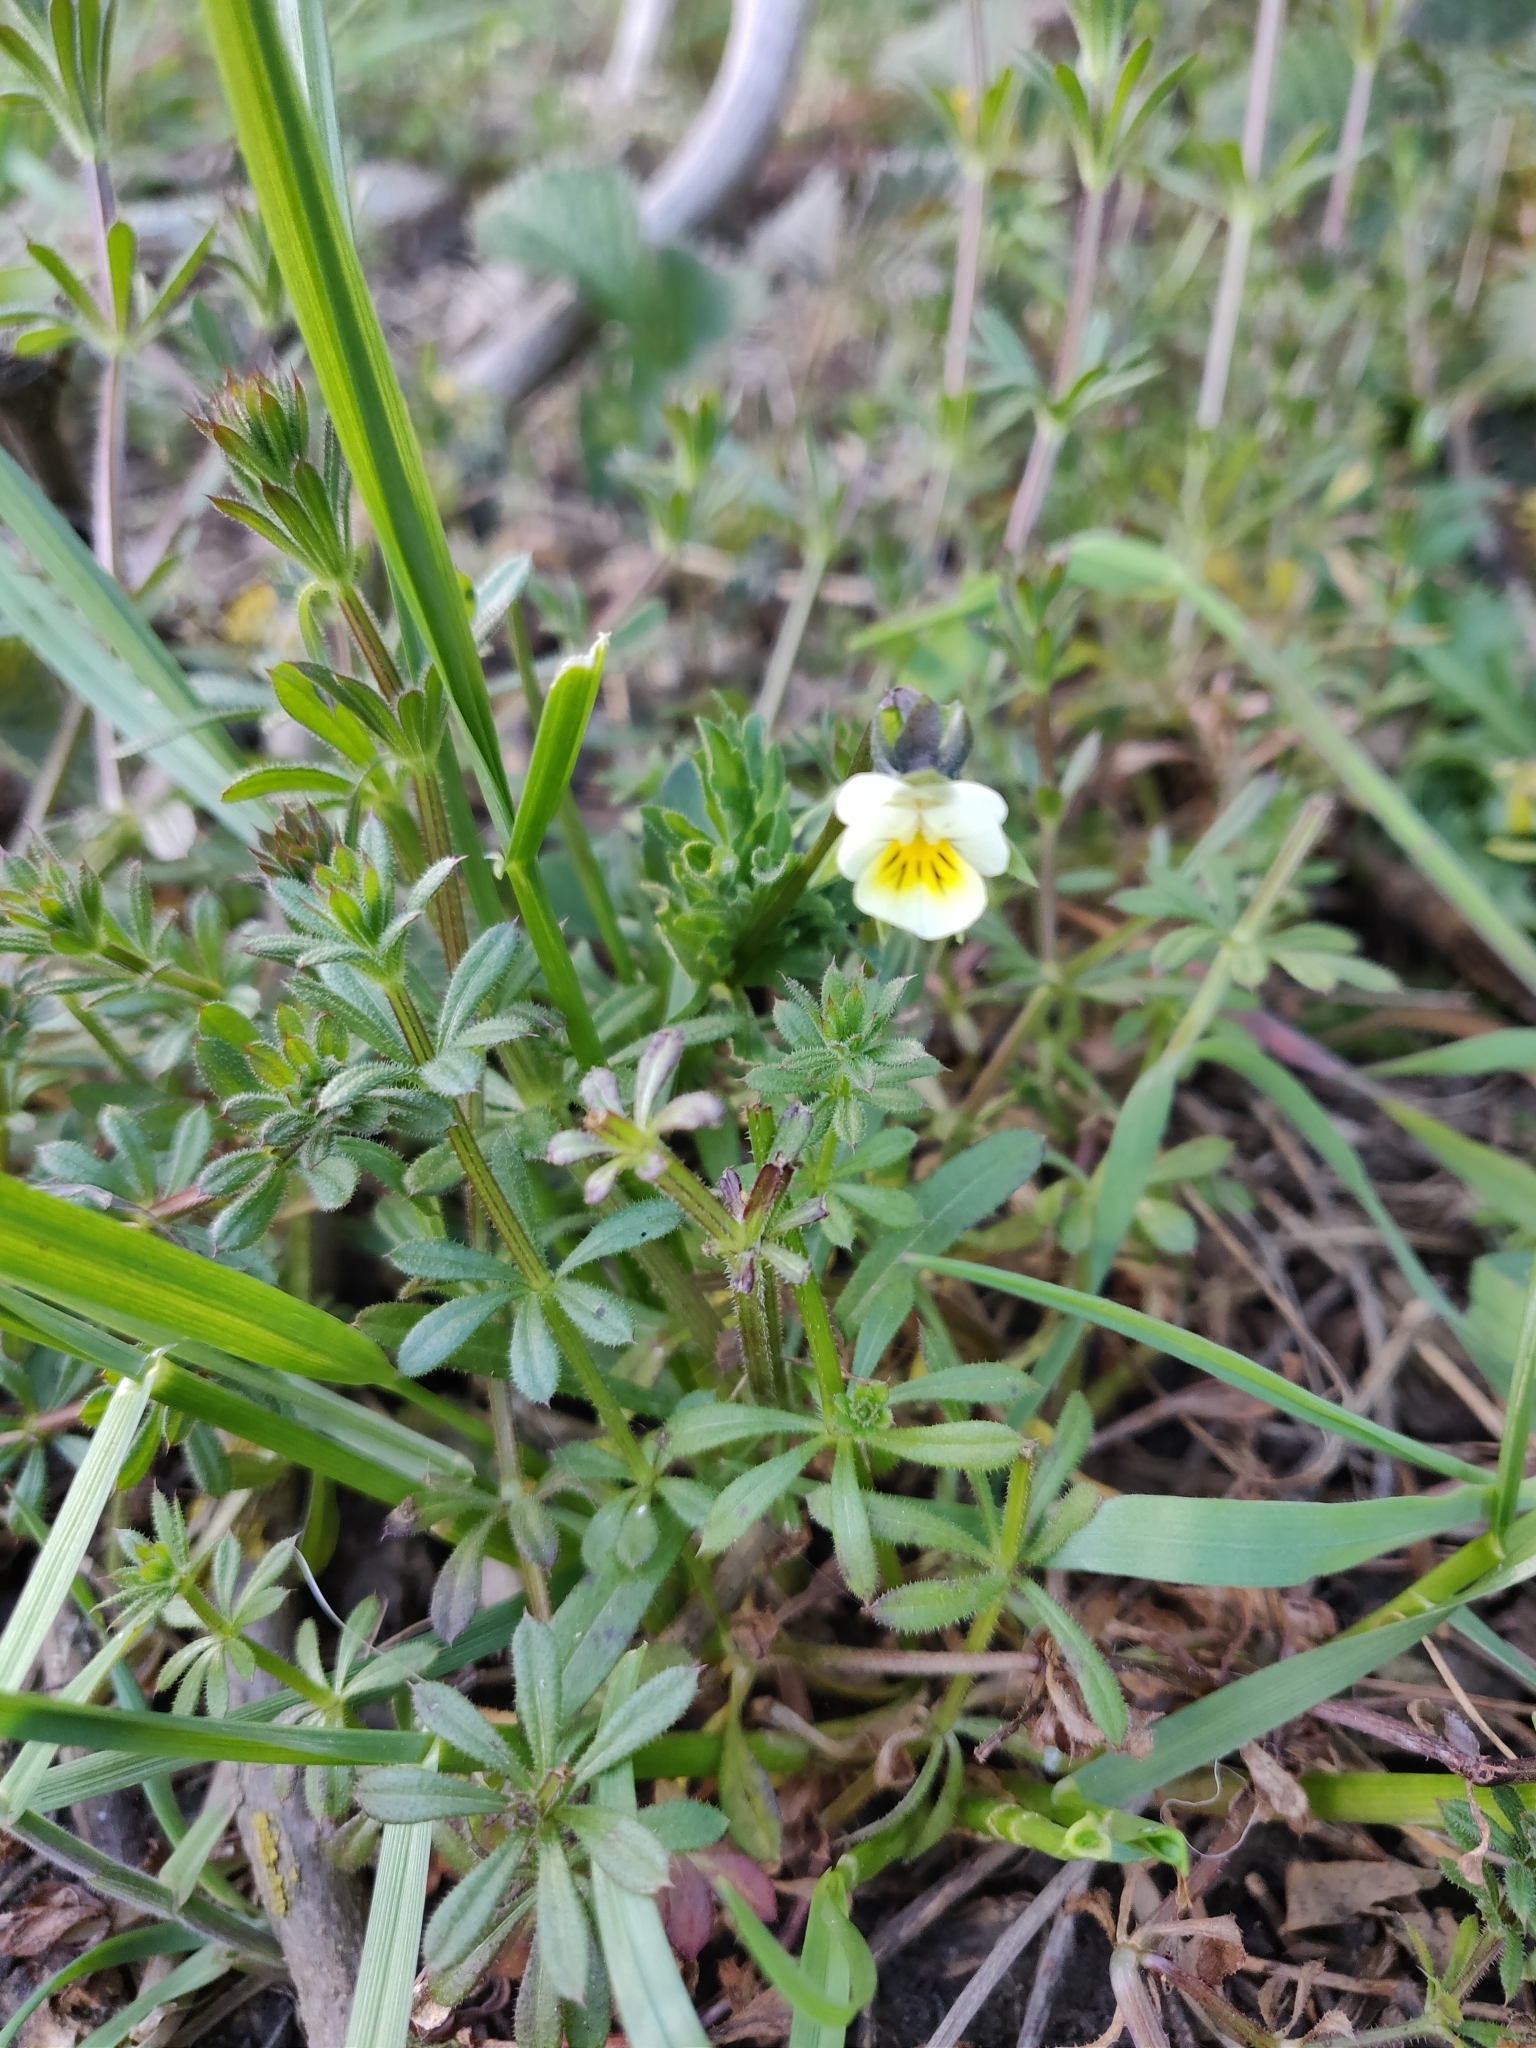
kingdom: Plantae
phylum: Tracheophyta
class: Magnoliopsida
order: Malpighiales
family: Violaceae
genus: Viola
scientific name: Viola arvensis
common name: Field pansy
